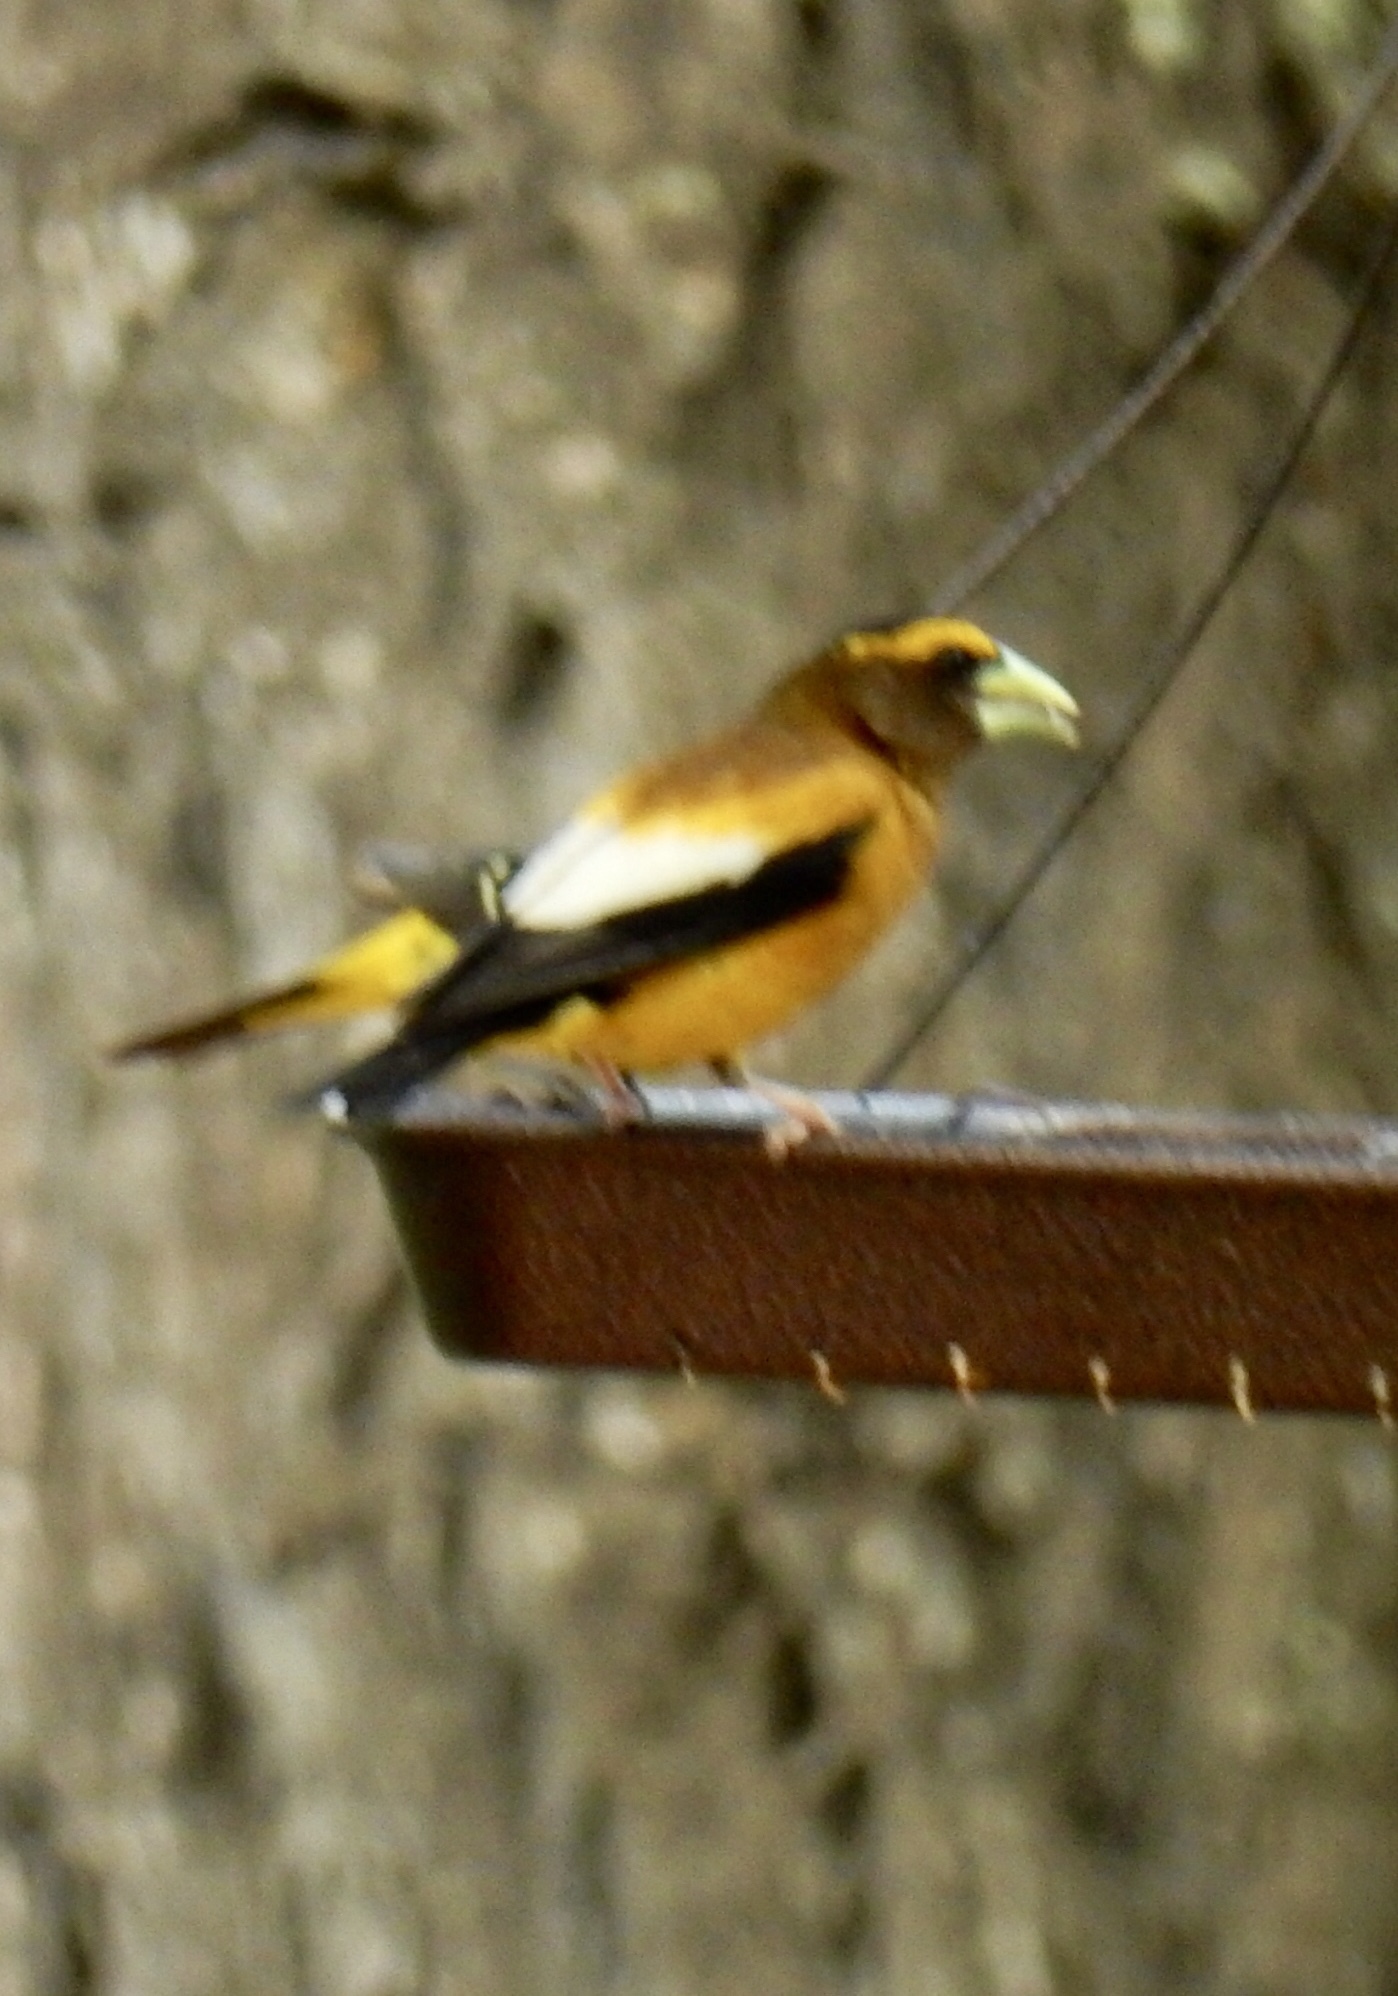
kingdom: Animalia
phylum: Chordata
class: Aves
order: Passeriformes
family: Fringillidae
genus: Hesperiphona
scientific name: Hesperiphona vespertina
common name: Evening grosbeak
